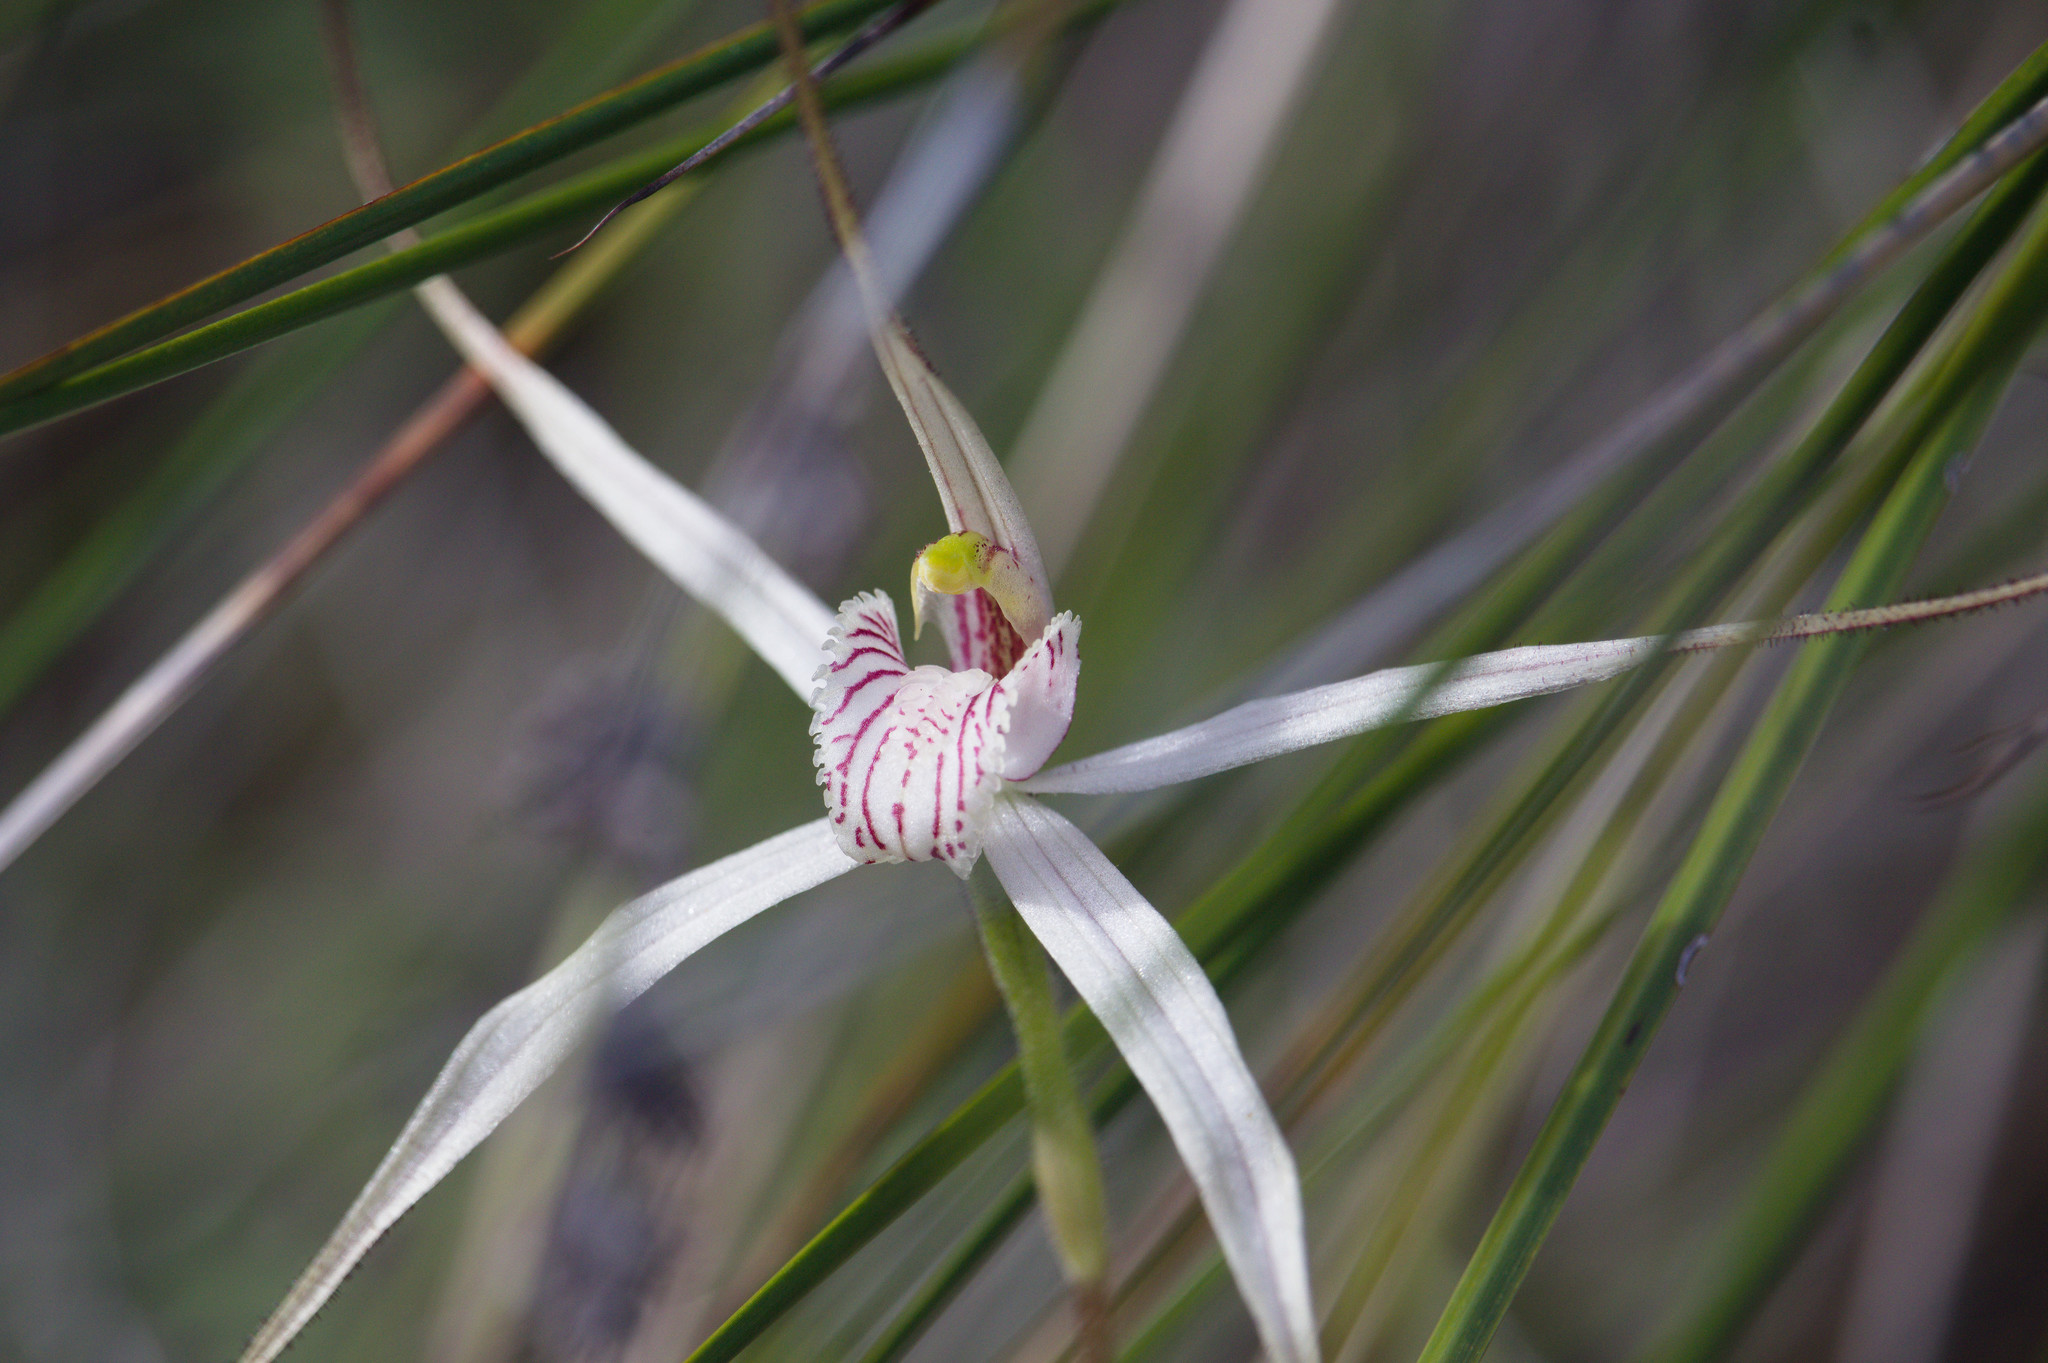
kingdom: Plantae
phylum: Tracheophyta
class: Liliopsida
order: Asparagales
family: Orchidaceae
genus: Caladenia
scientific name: Caladenia petrensis
